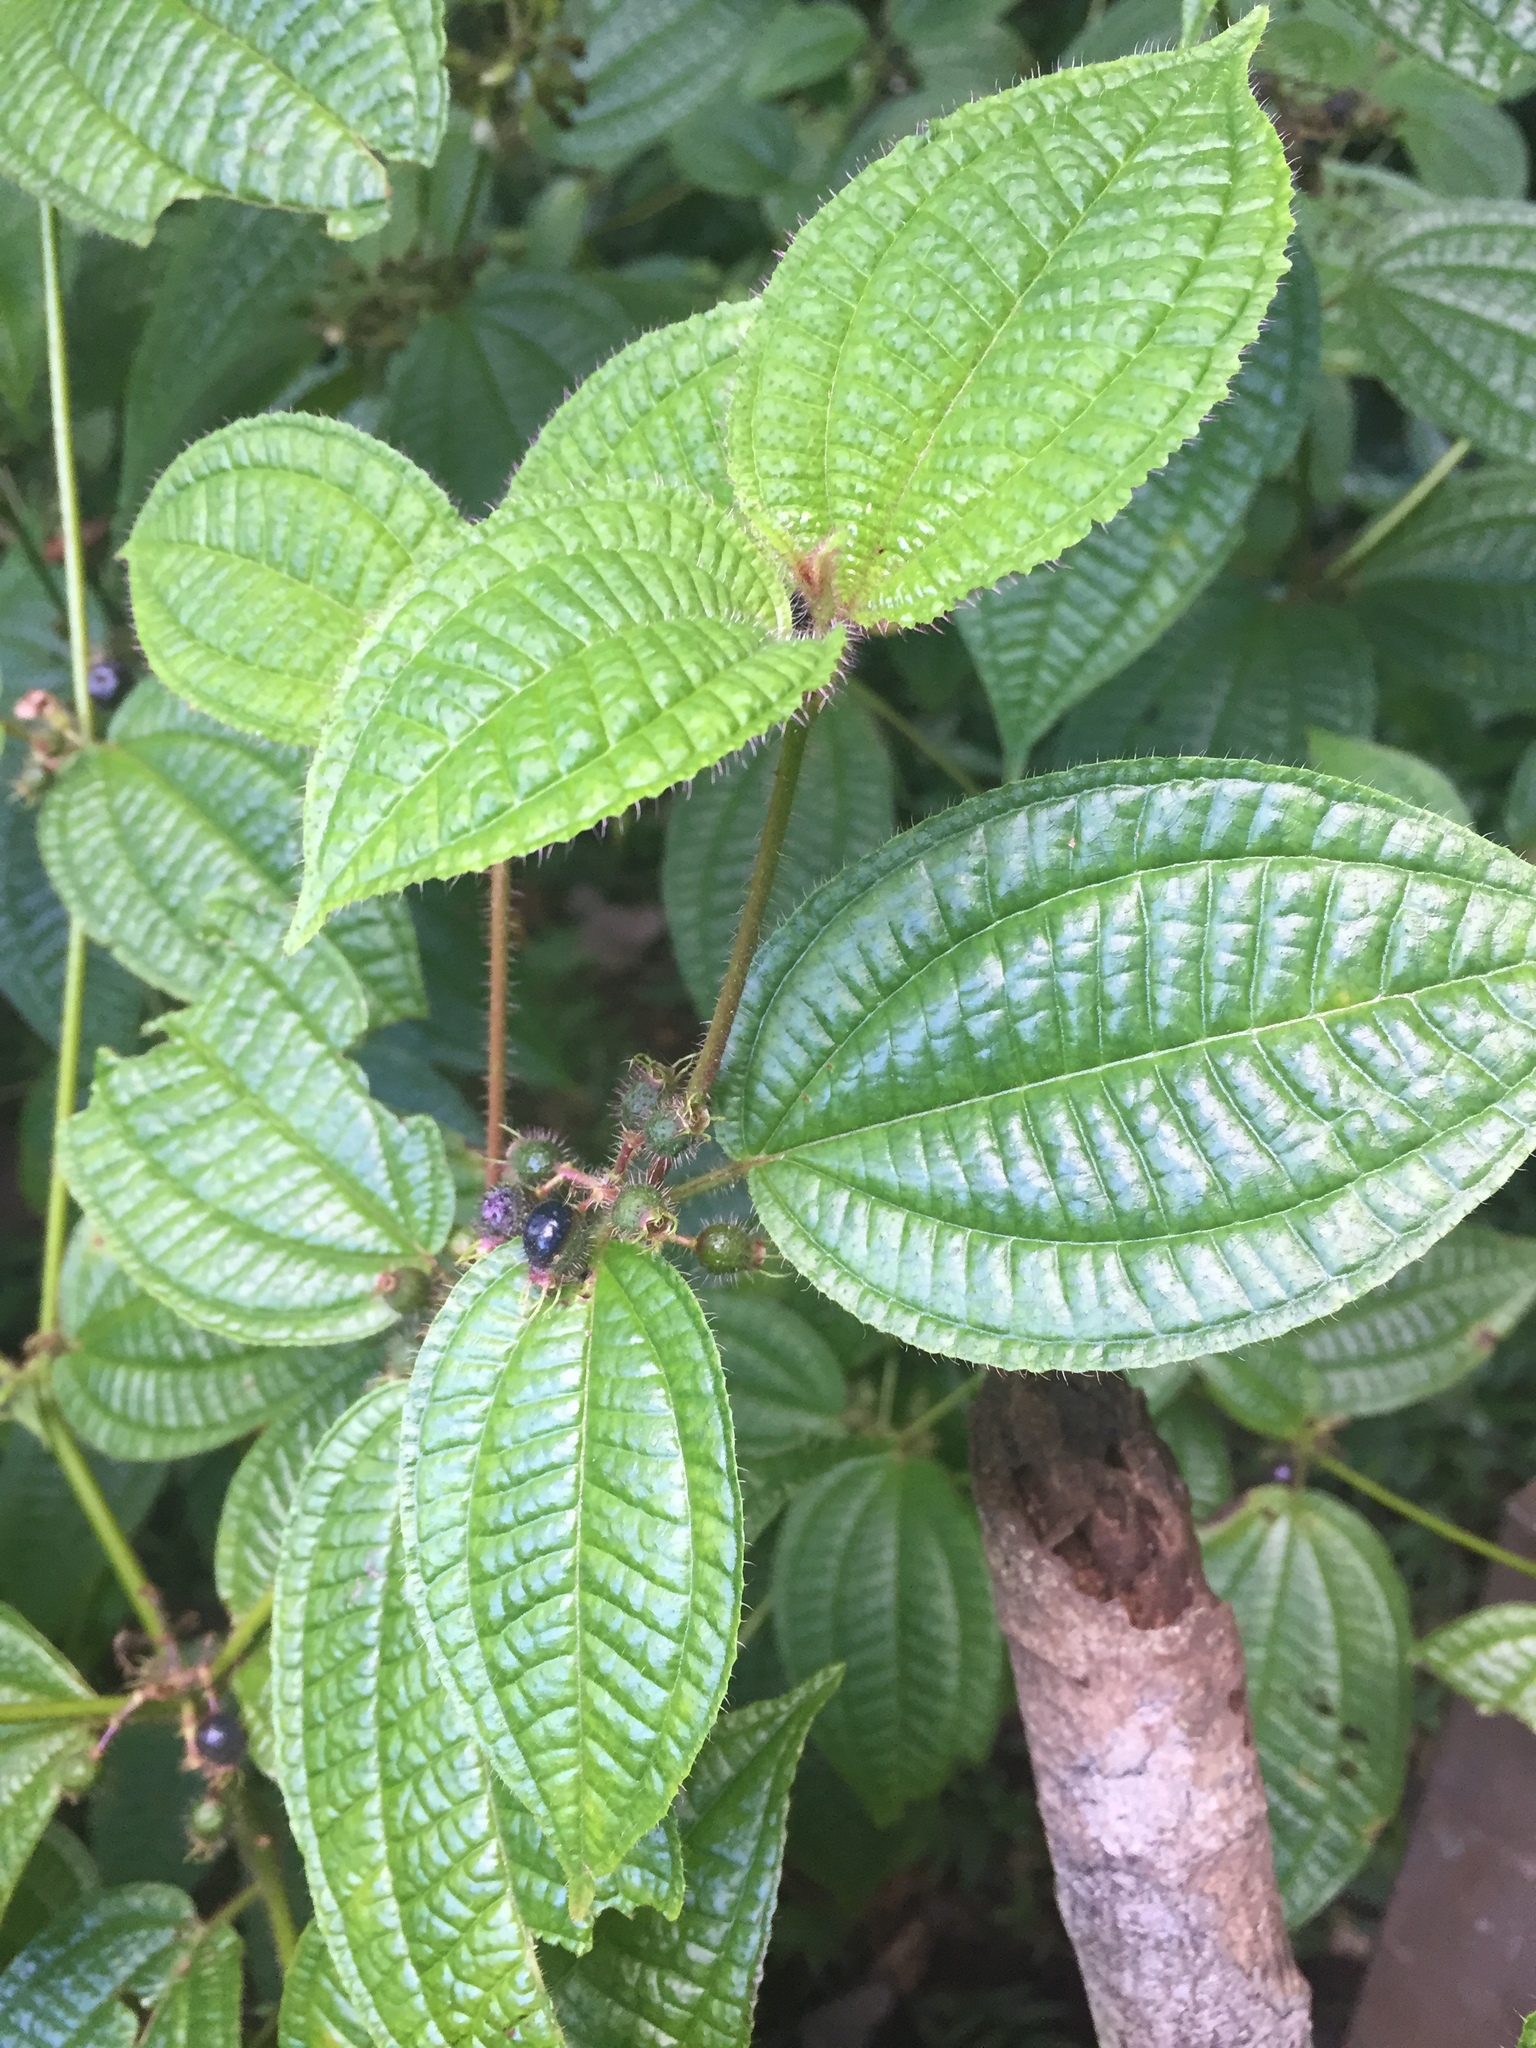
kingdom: Plantae
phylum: Tracheophyta
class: Magnoliopsida
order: Myrtales
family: Melastomataceae
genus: Miconia
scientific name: Miconia crenata
